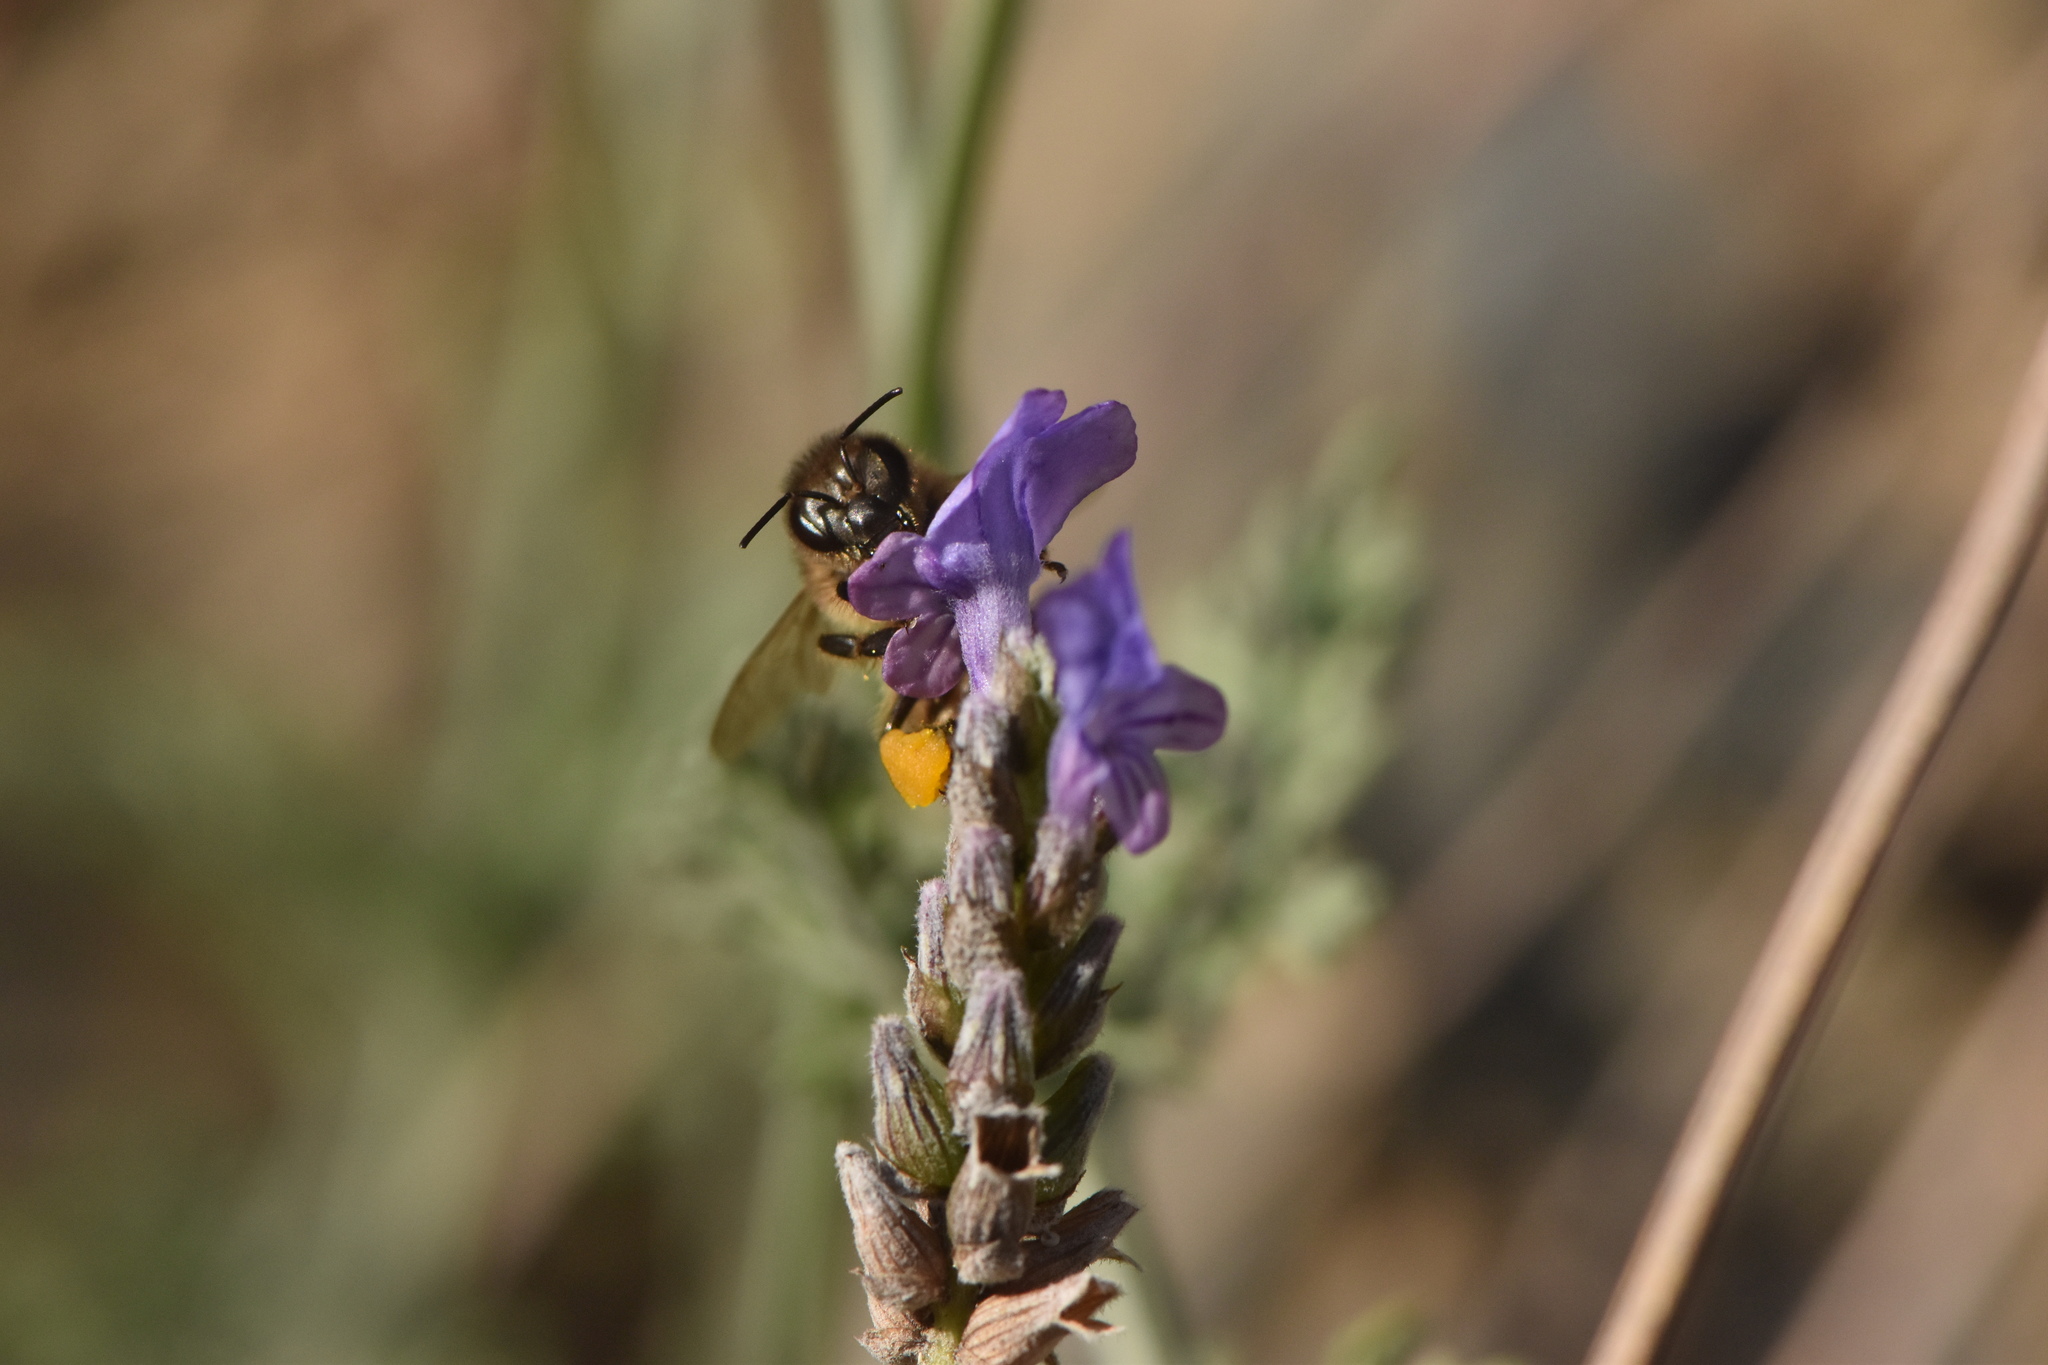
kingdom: Animalia
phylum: Arthropoda
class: Insecta
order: Hymenoptera
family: Apidae
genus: Apis
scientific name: Apis mellifera
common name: Honey bee
